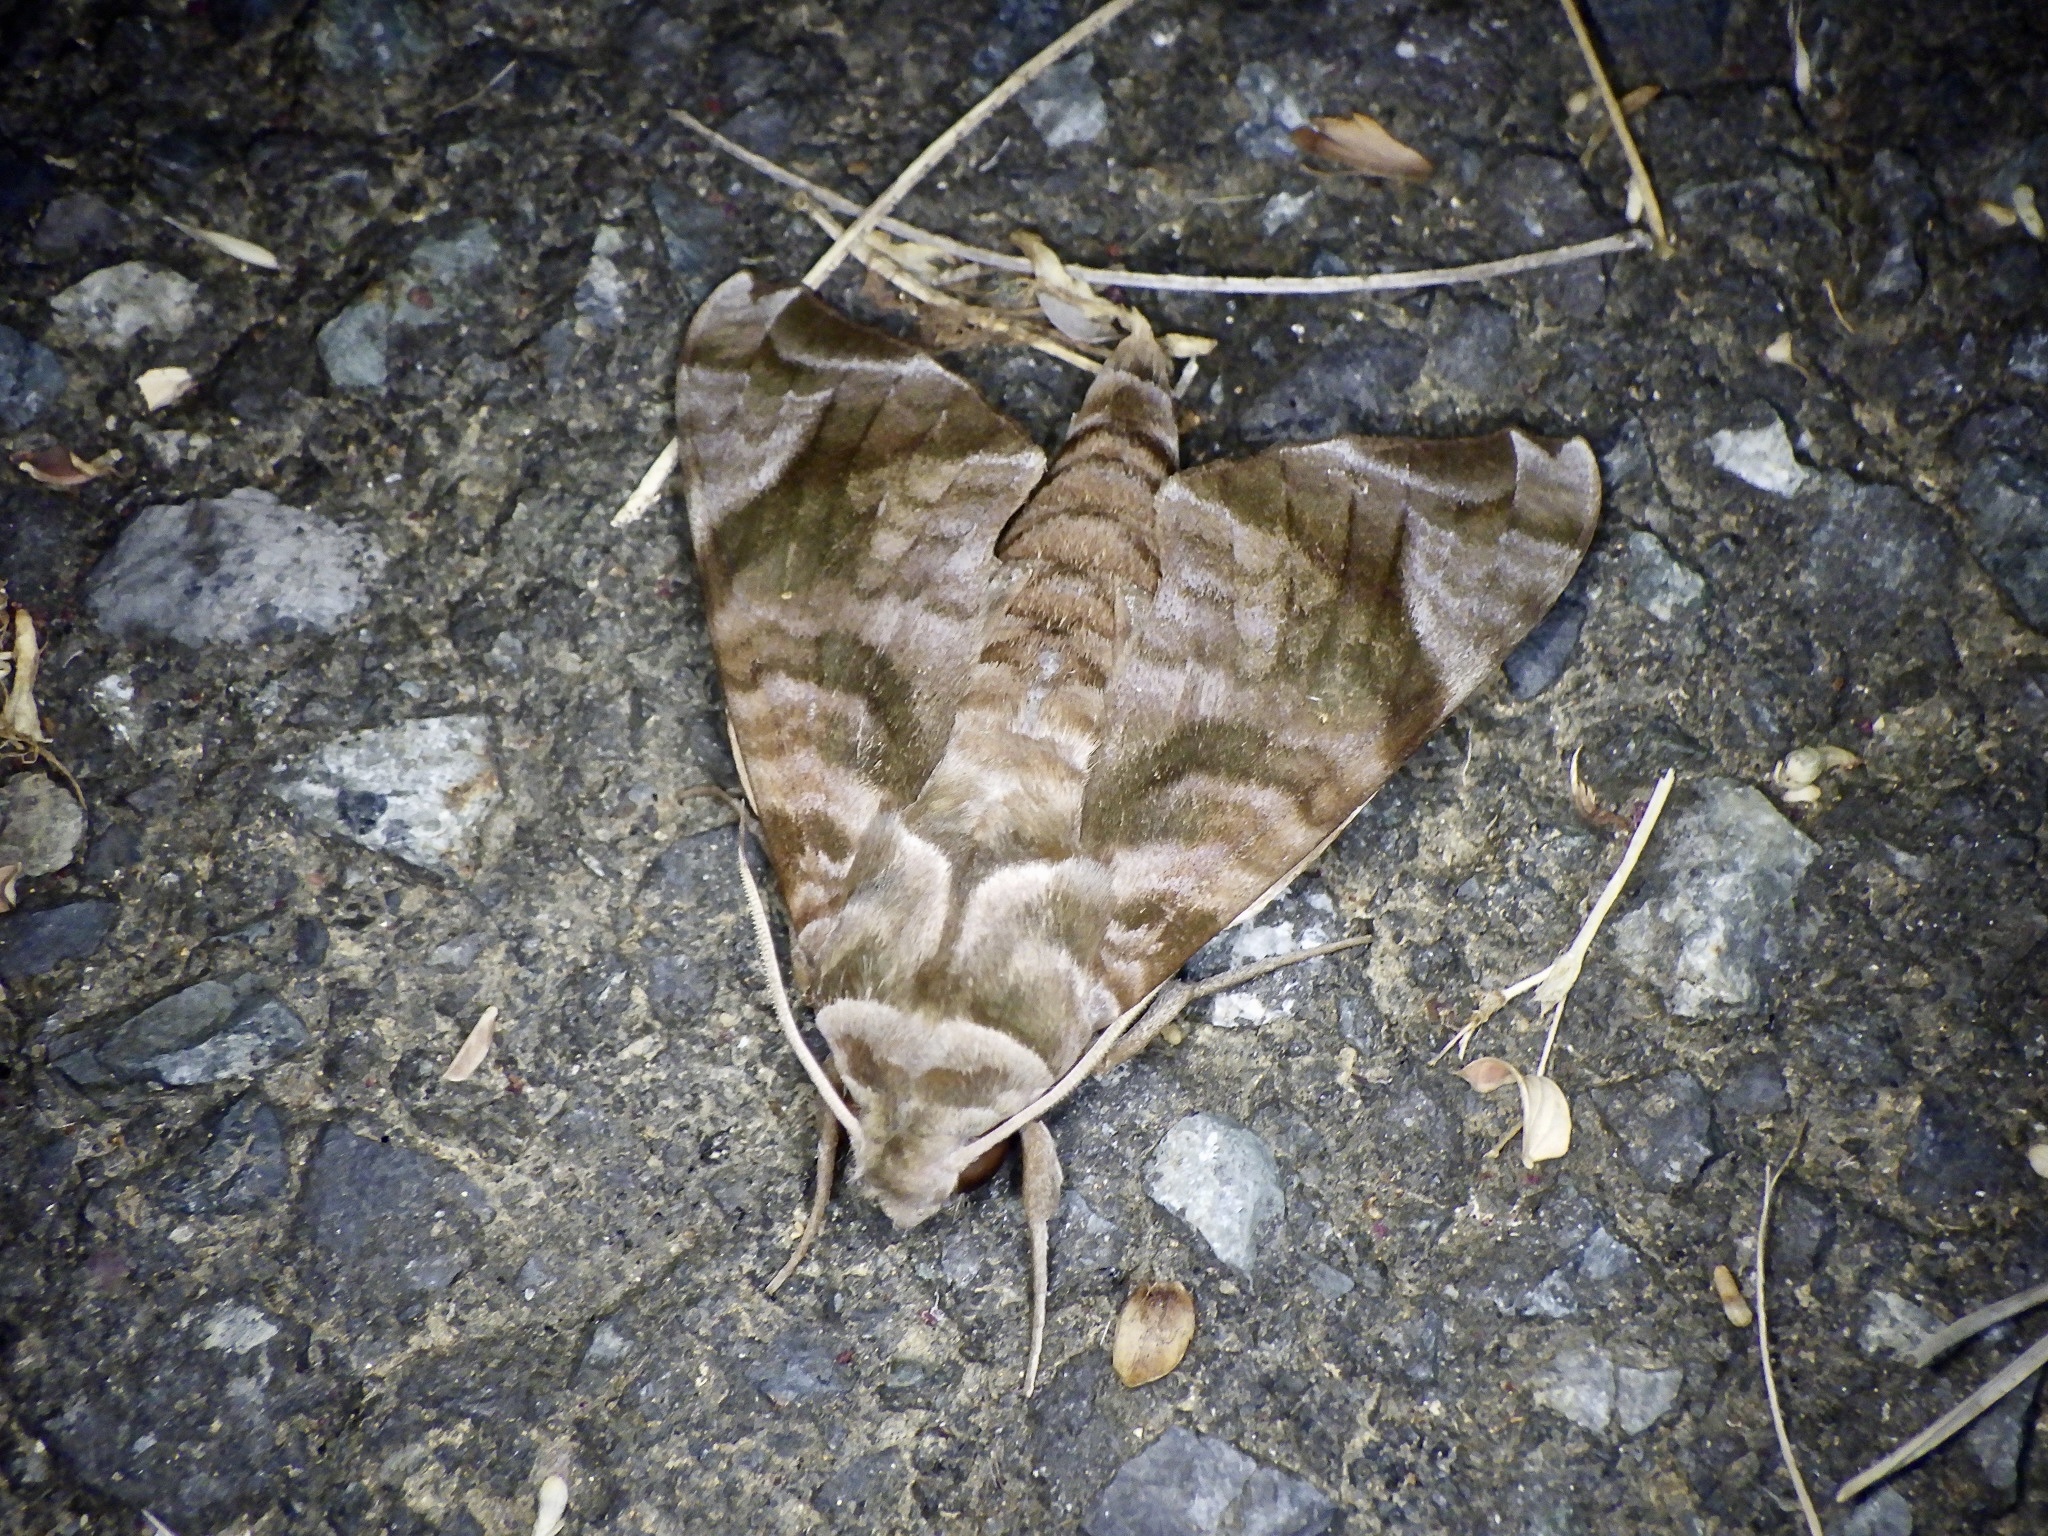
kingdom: Animalia
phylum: Arthropoda
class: Insecta
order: Lepidoptera
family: Sphingidae
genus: Acosmeryx
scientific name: Acosmeryx castanea
